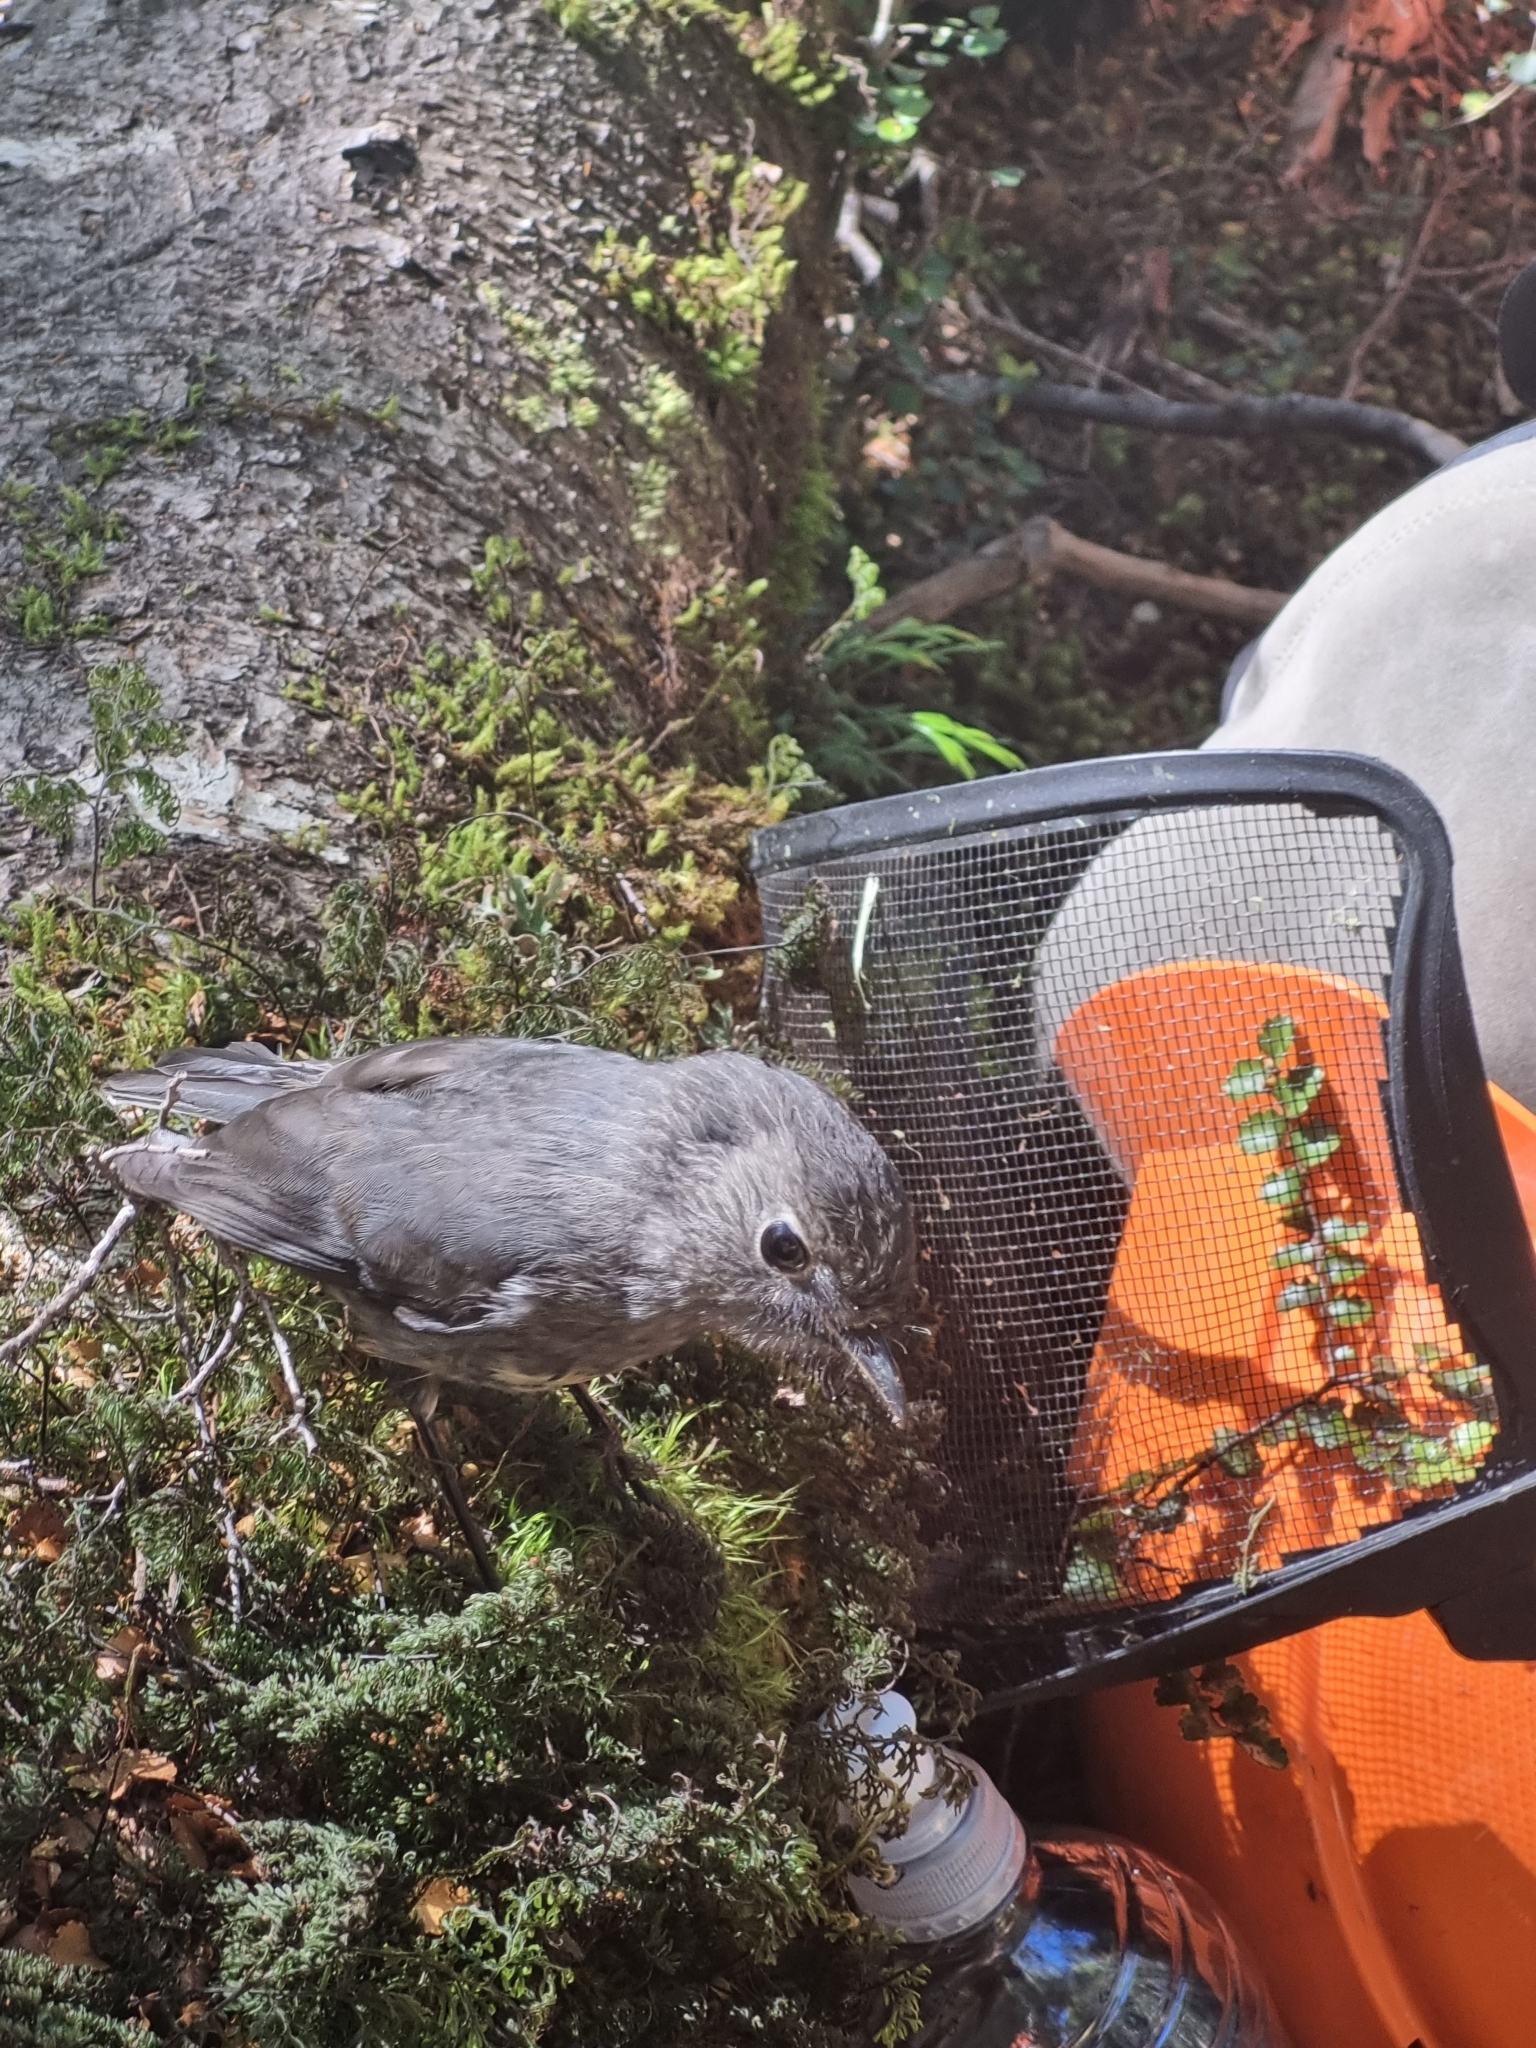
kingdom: Animalia
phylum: Chordata
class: Aves
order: Passeriformes
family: Petroicidae
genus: Petroica
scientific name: Petroica australis
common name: New zealand robin
